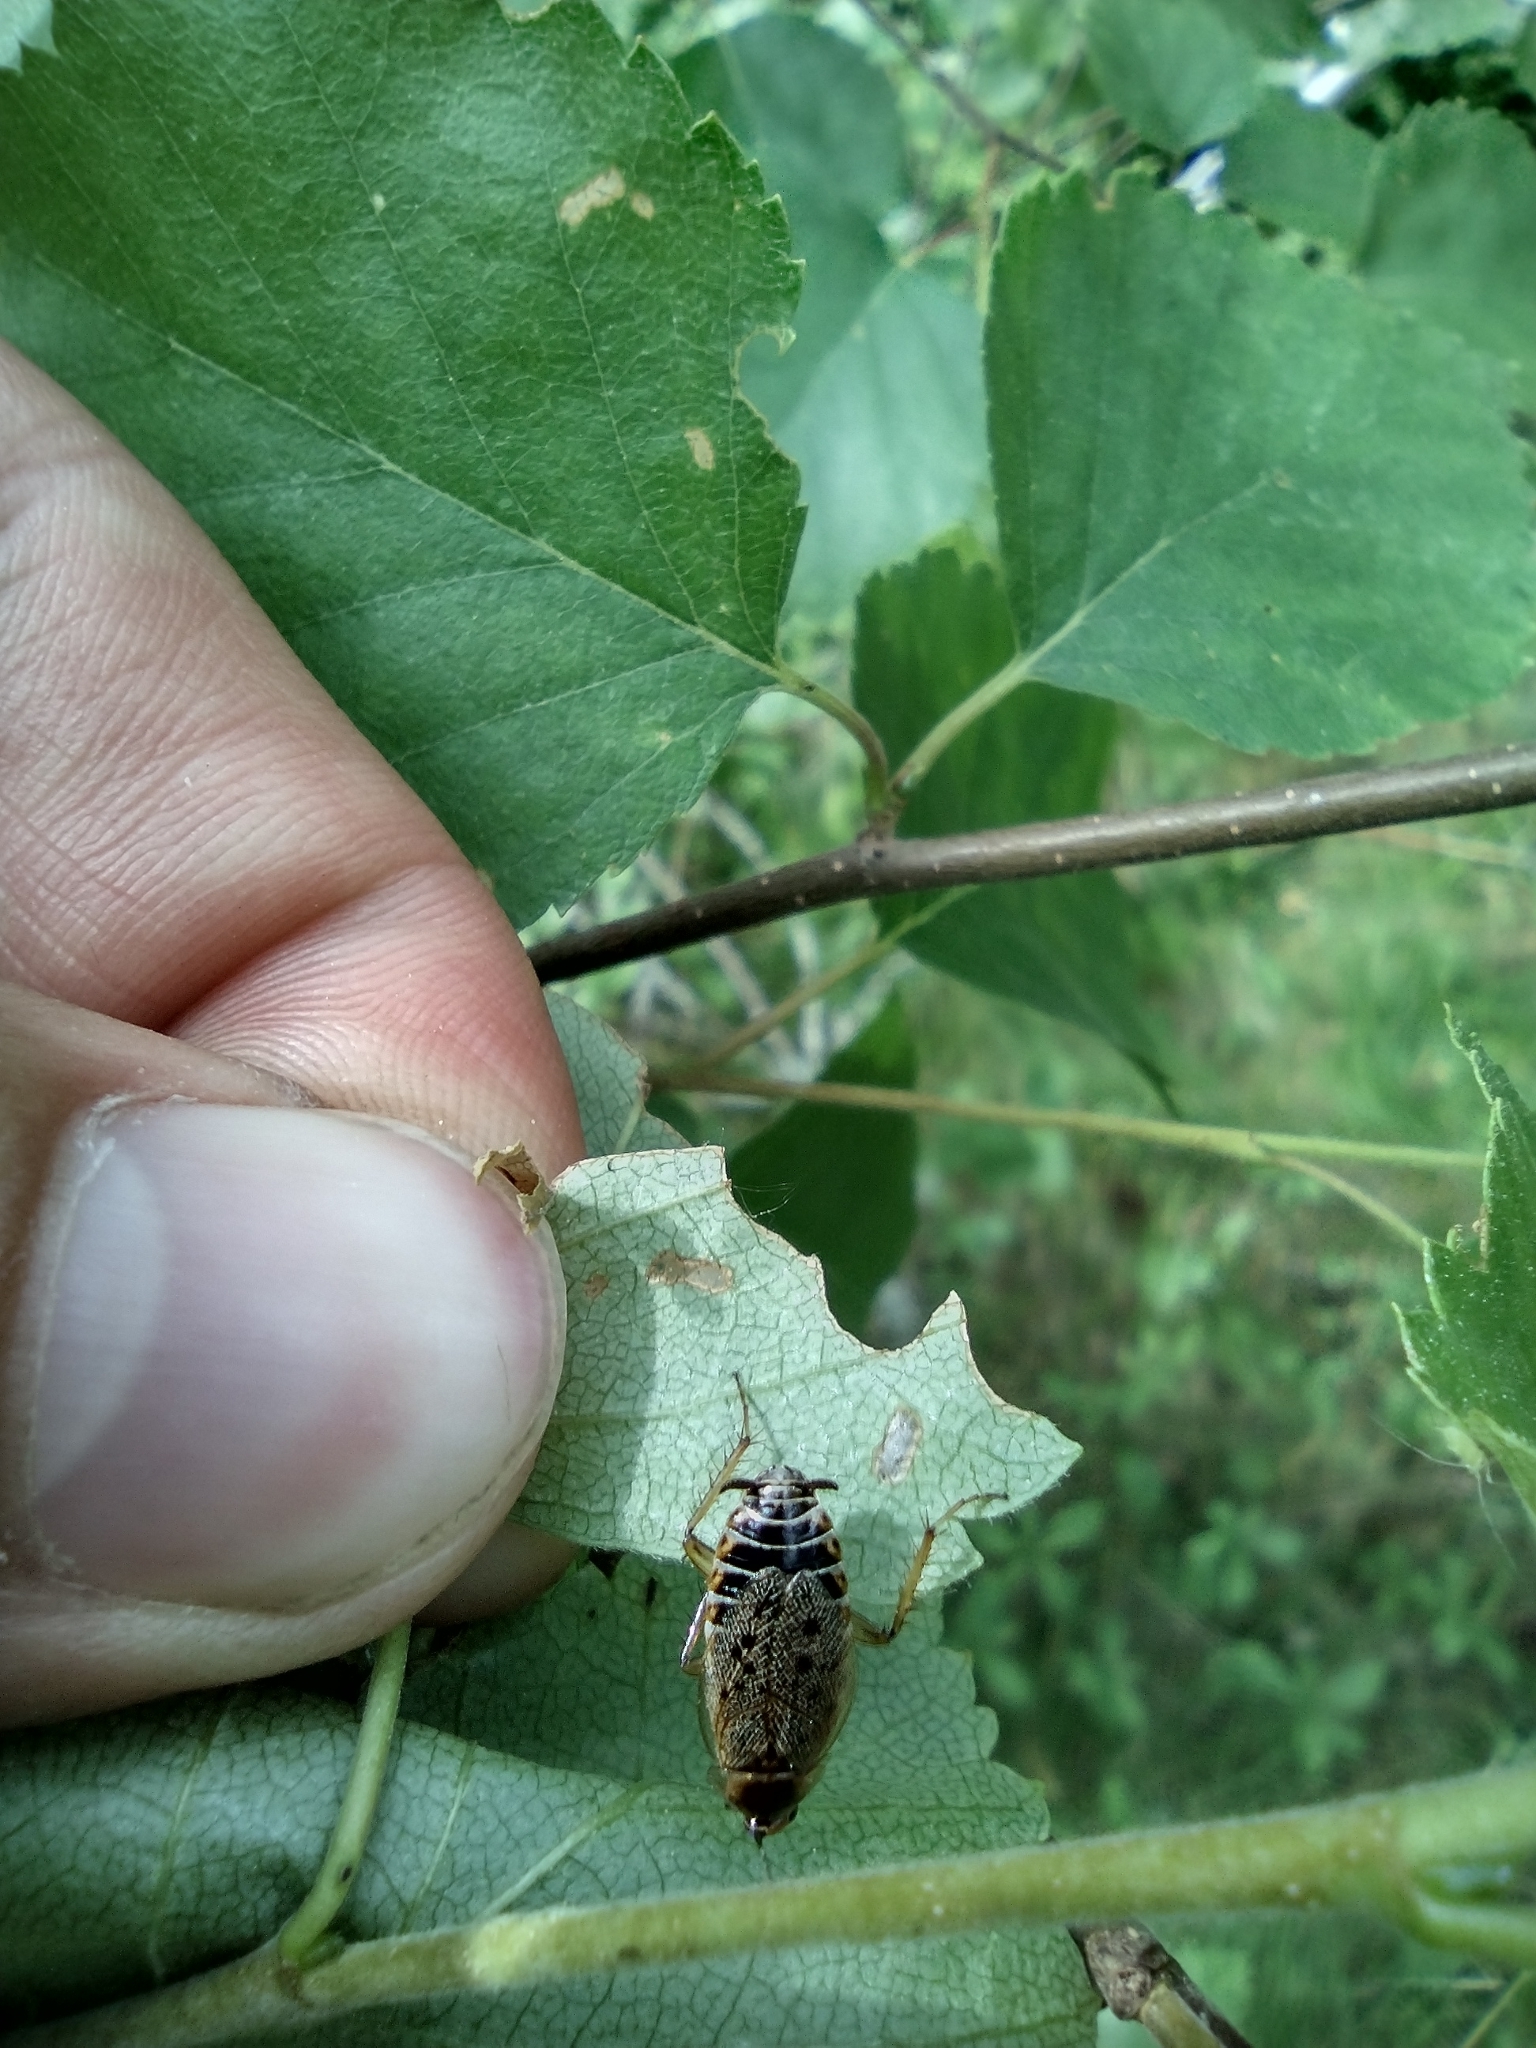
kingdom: Animalia
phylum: Arthropoda
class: Insecta
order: Blattodea
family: Ectobiidae
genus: Ectobius
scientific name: Ectobius lapponicus
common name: Dusky cockroach
